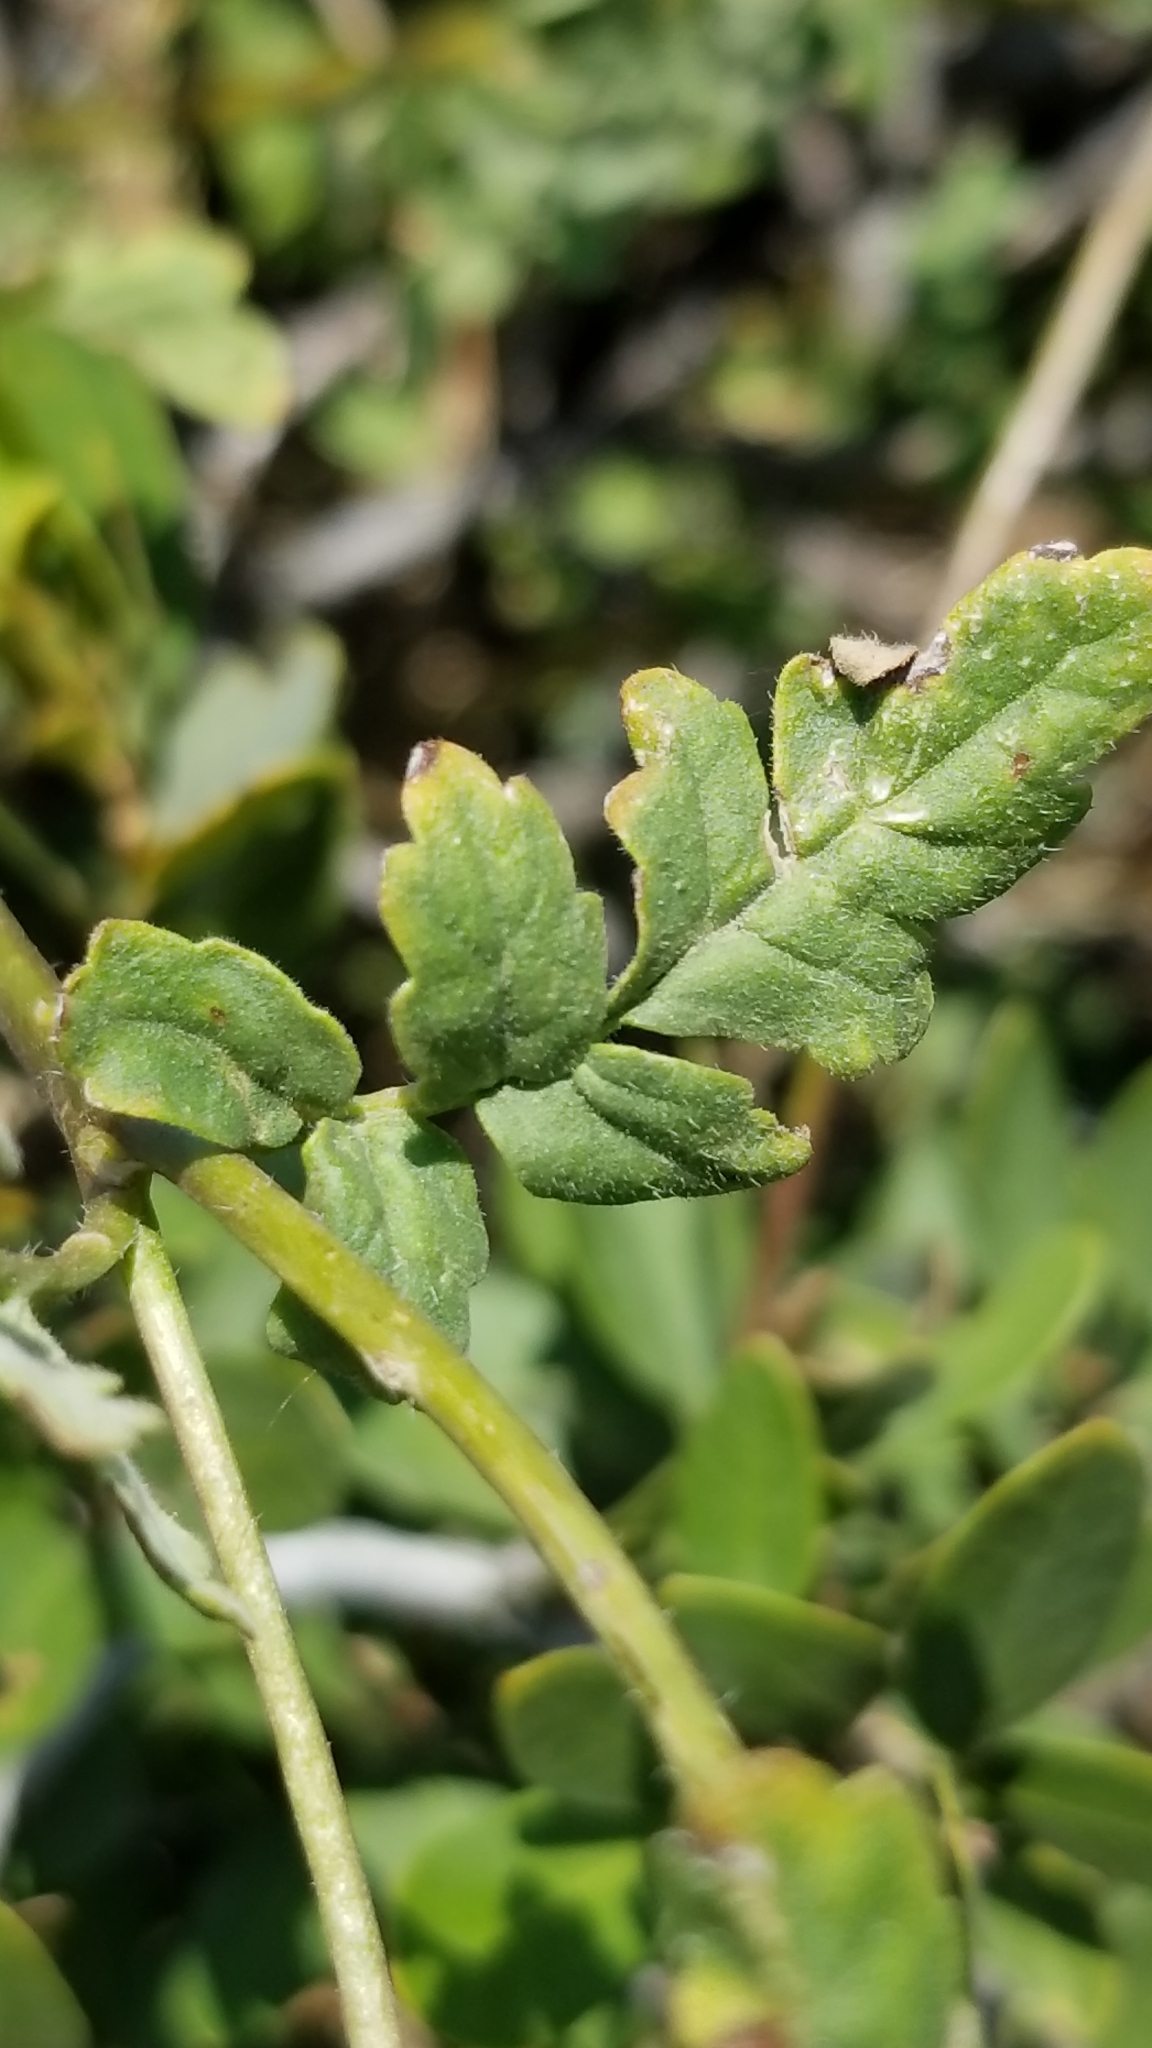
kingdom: Plantae
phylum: Tracheophyta
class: Magnoliopsida
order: Boraginales
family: Hydrophyllaceae
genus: Phacelia
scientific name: Phacelia ramosissima
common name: Branching phacelia
